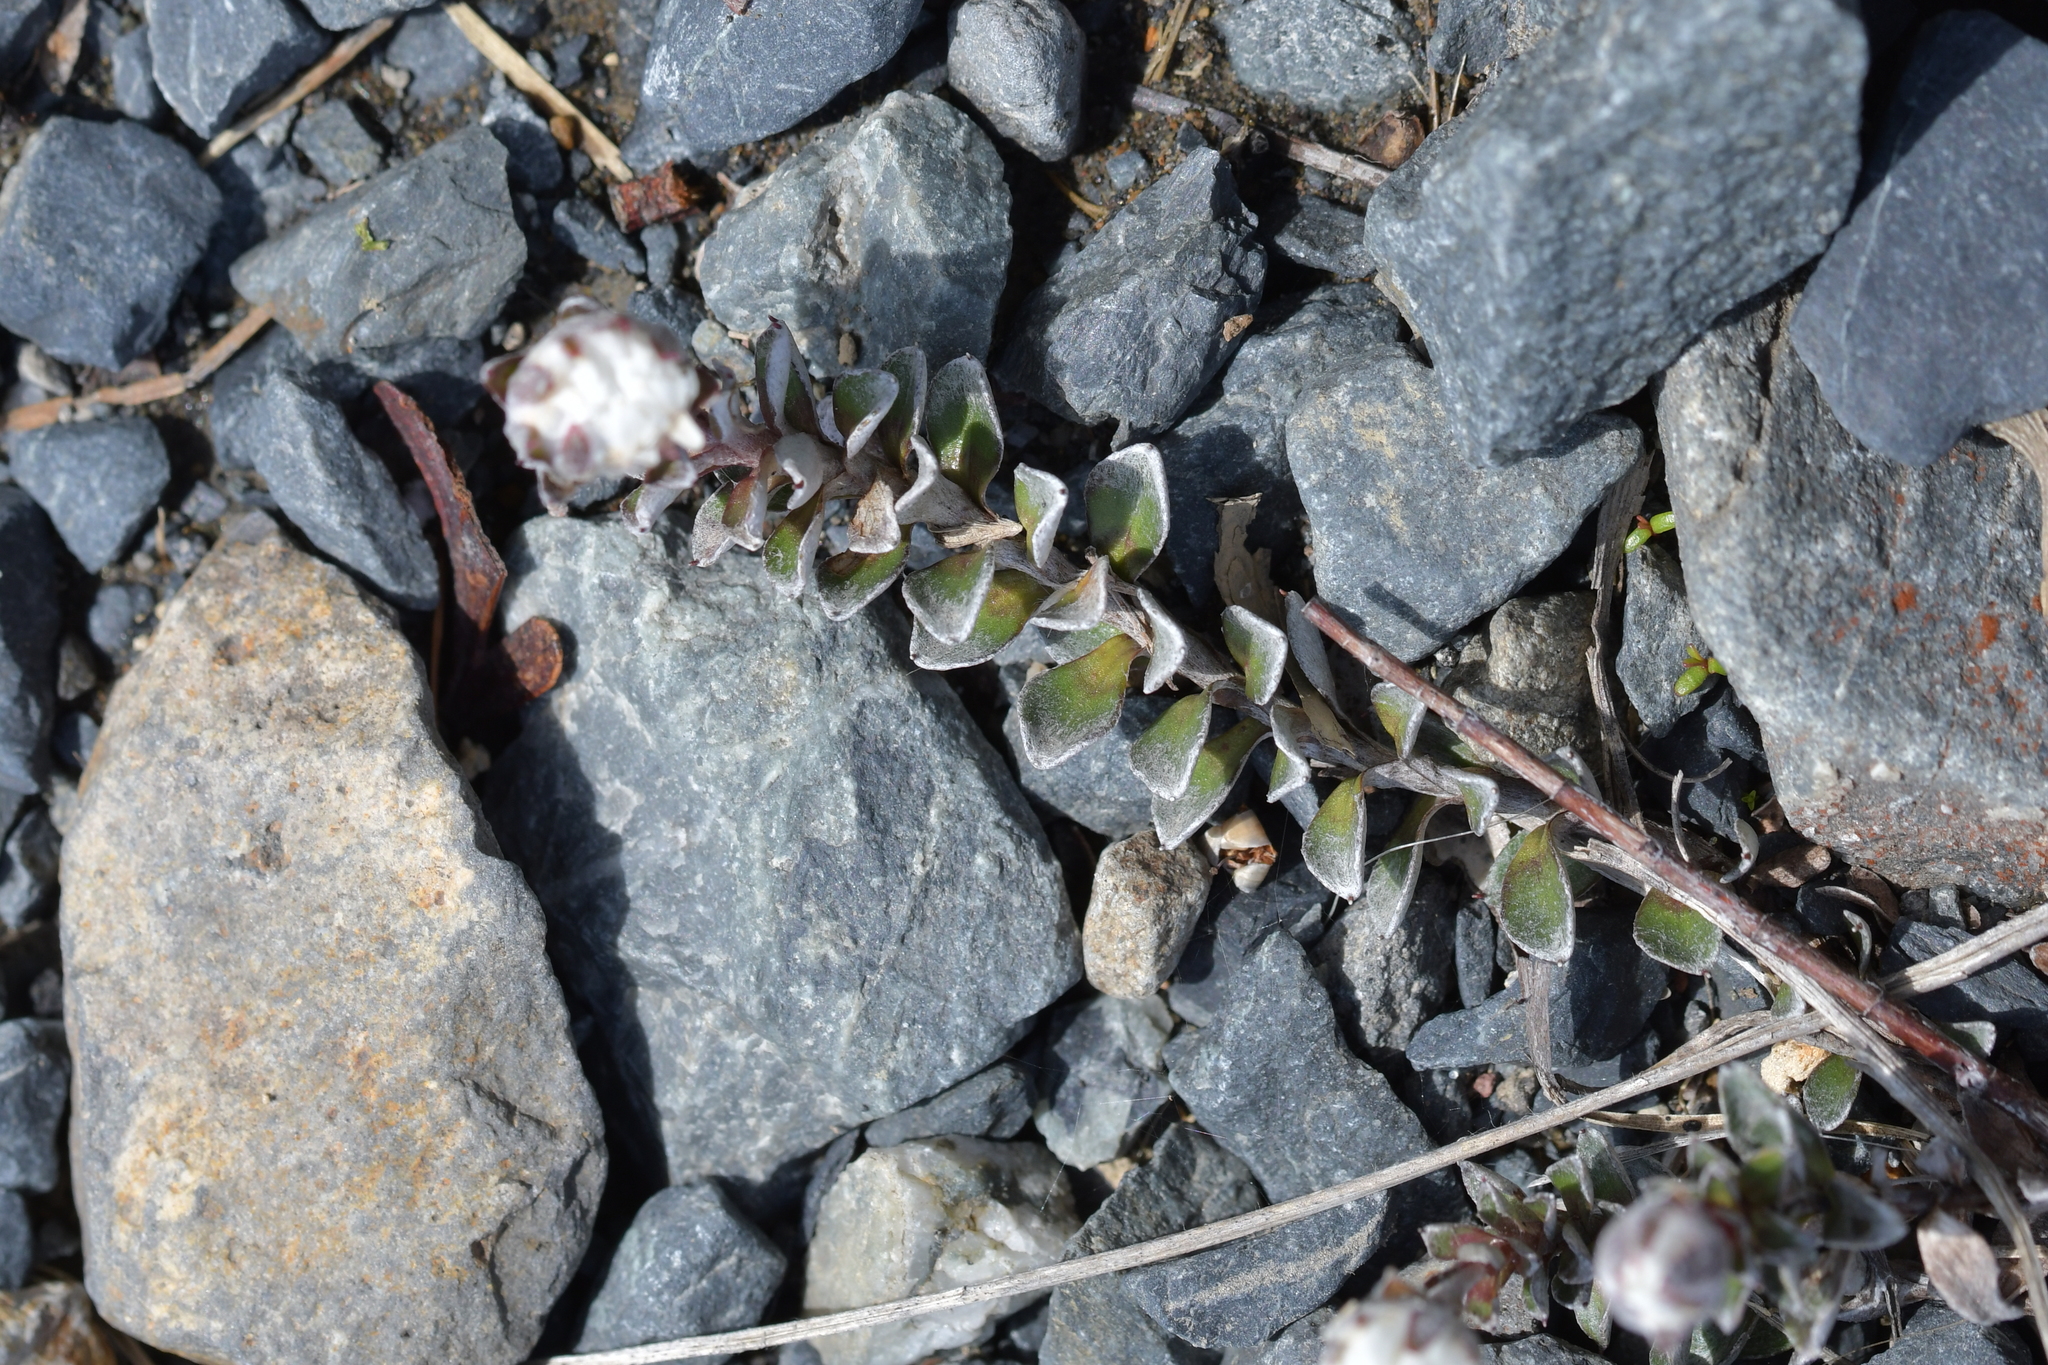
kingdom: Plantae
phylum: Tracheophyta
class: Magnoliopsida
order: Asterales
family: Asteraceae
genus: Anaphalioides
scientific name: Anaphalioides alpina
